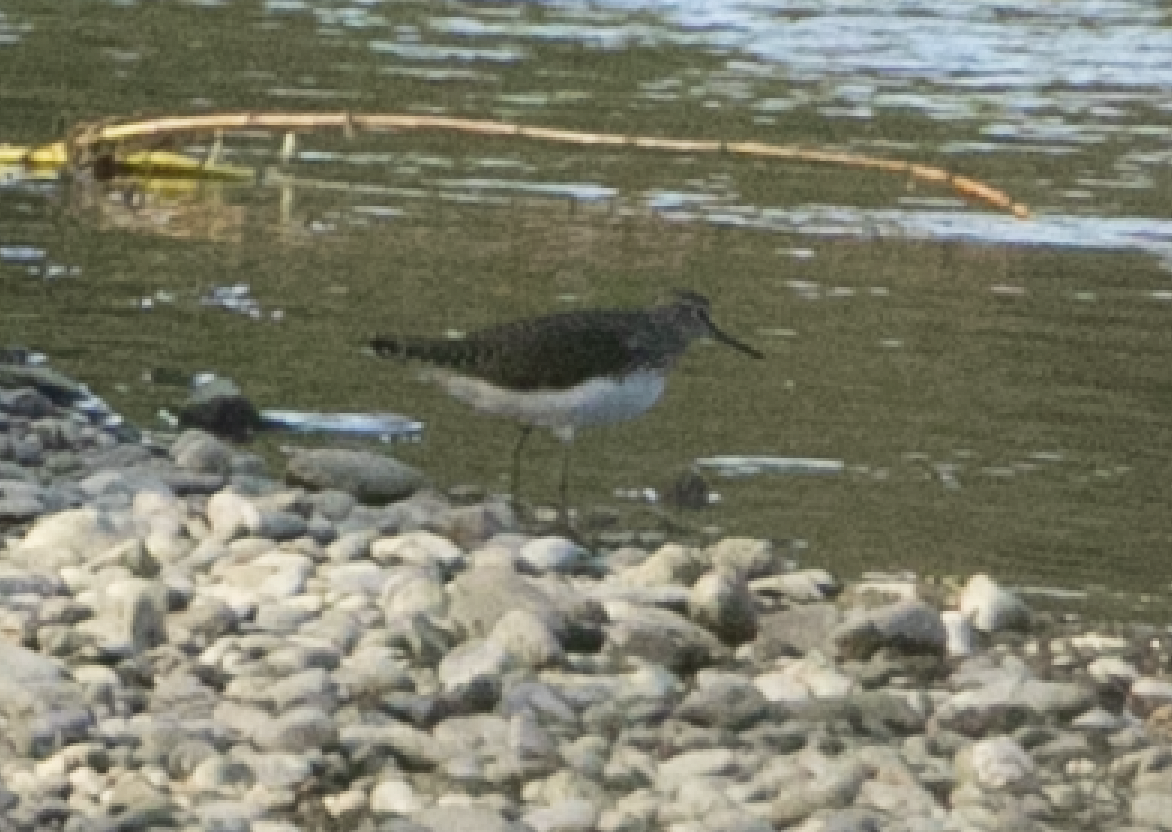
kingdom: Animalia
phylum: Chordata
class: Aves
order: Charadriiformes
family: Scolopacidae
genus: Tringa
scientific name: Tringa ochropus
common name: Green sandpiper
